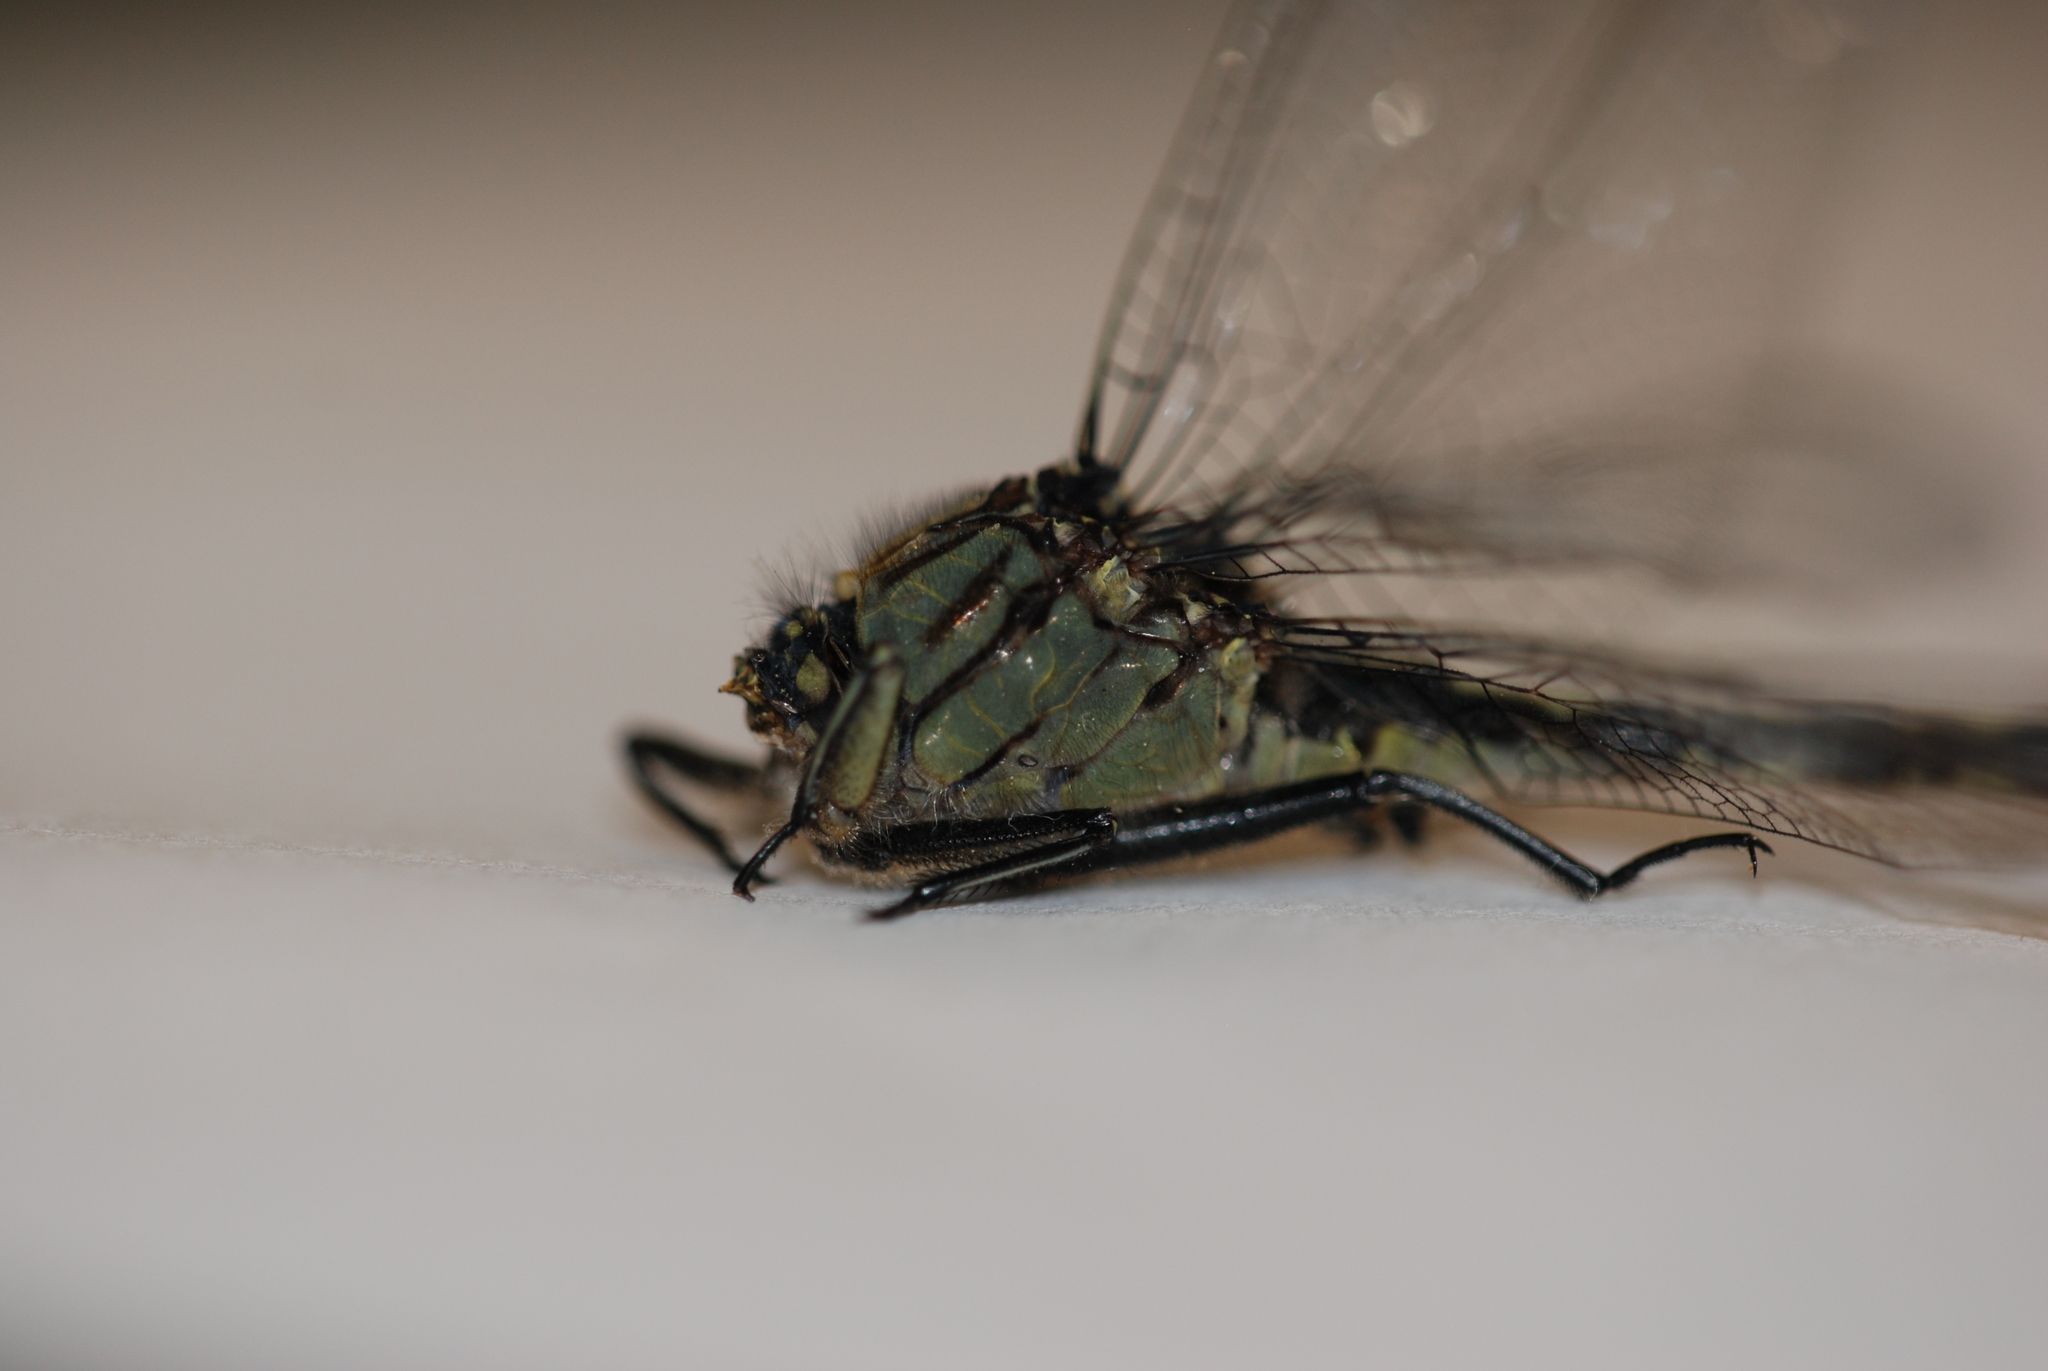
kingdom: Animalia
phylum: Arthropoda
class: Insecta
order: Odonata
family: Gomphidae
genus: Arigomphus
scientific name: Arigomphus villosipes
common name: Unicorn clubtail
